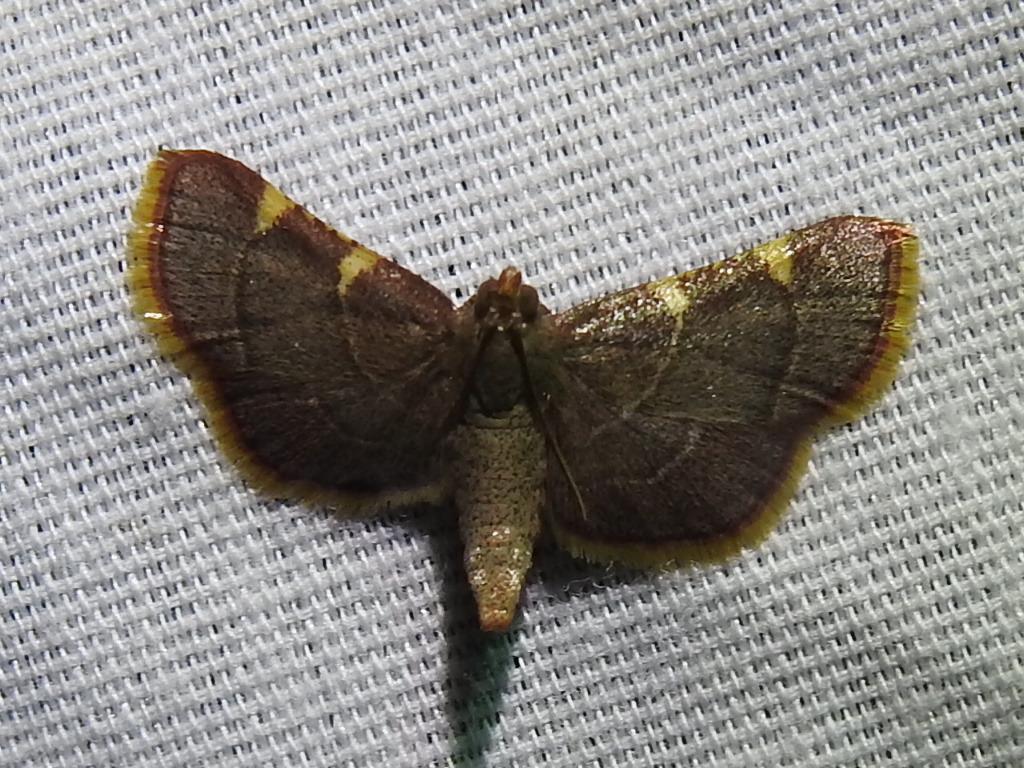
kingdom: Animalia
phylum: Arthropoda
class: Insecta
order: Lepidoptera
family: Pyralidae
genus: Hypsopygia
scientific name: Hypsopygia olinalis
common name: Yellow-fringed dolichomia moth
